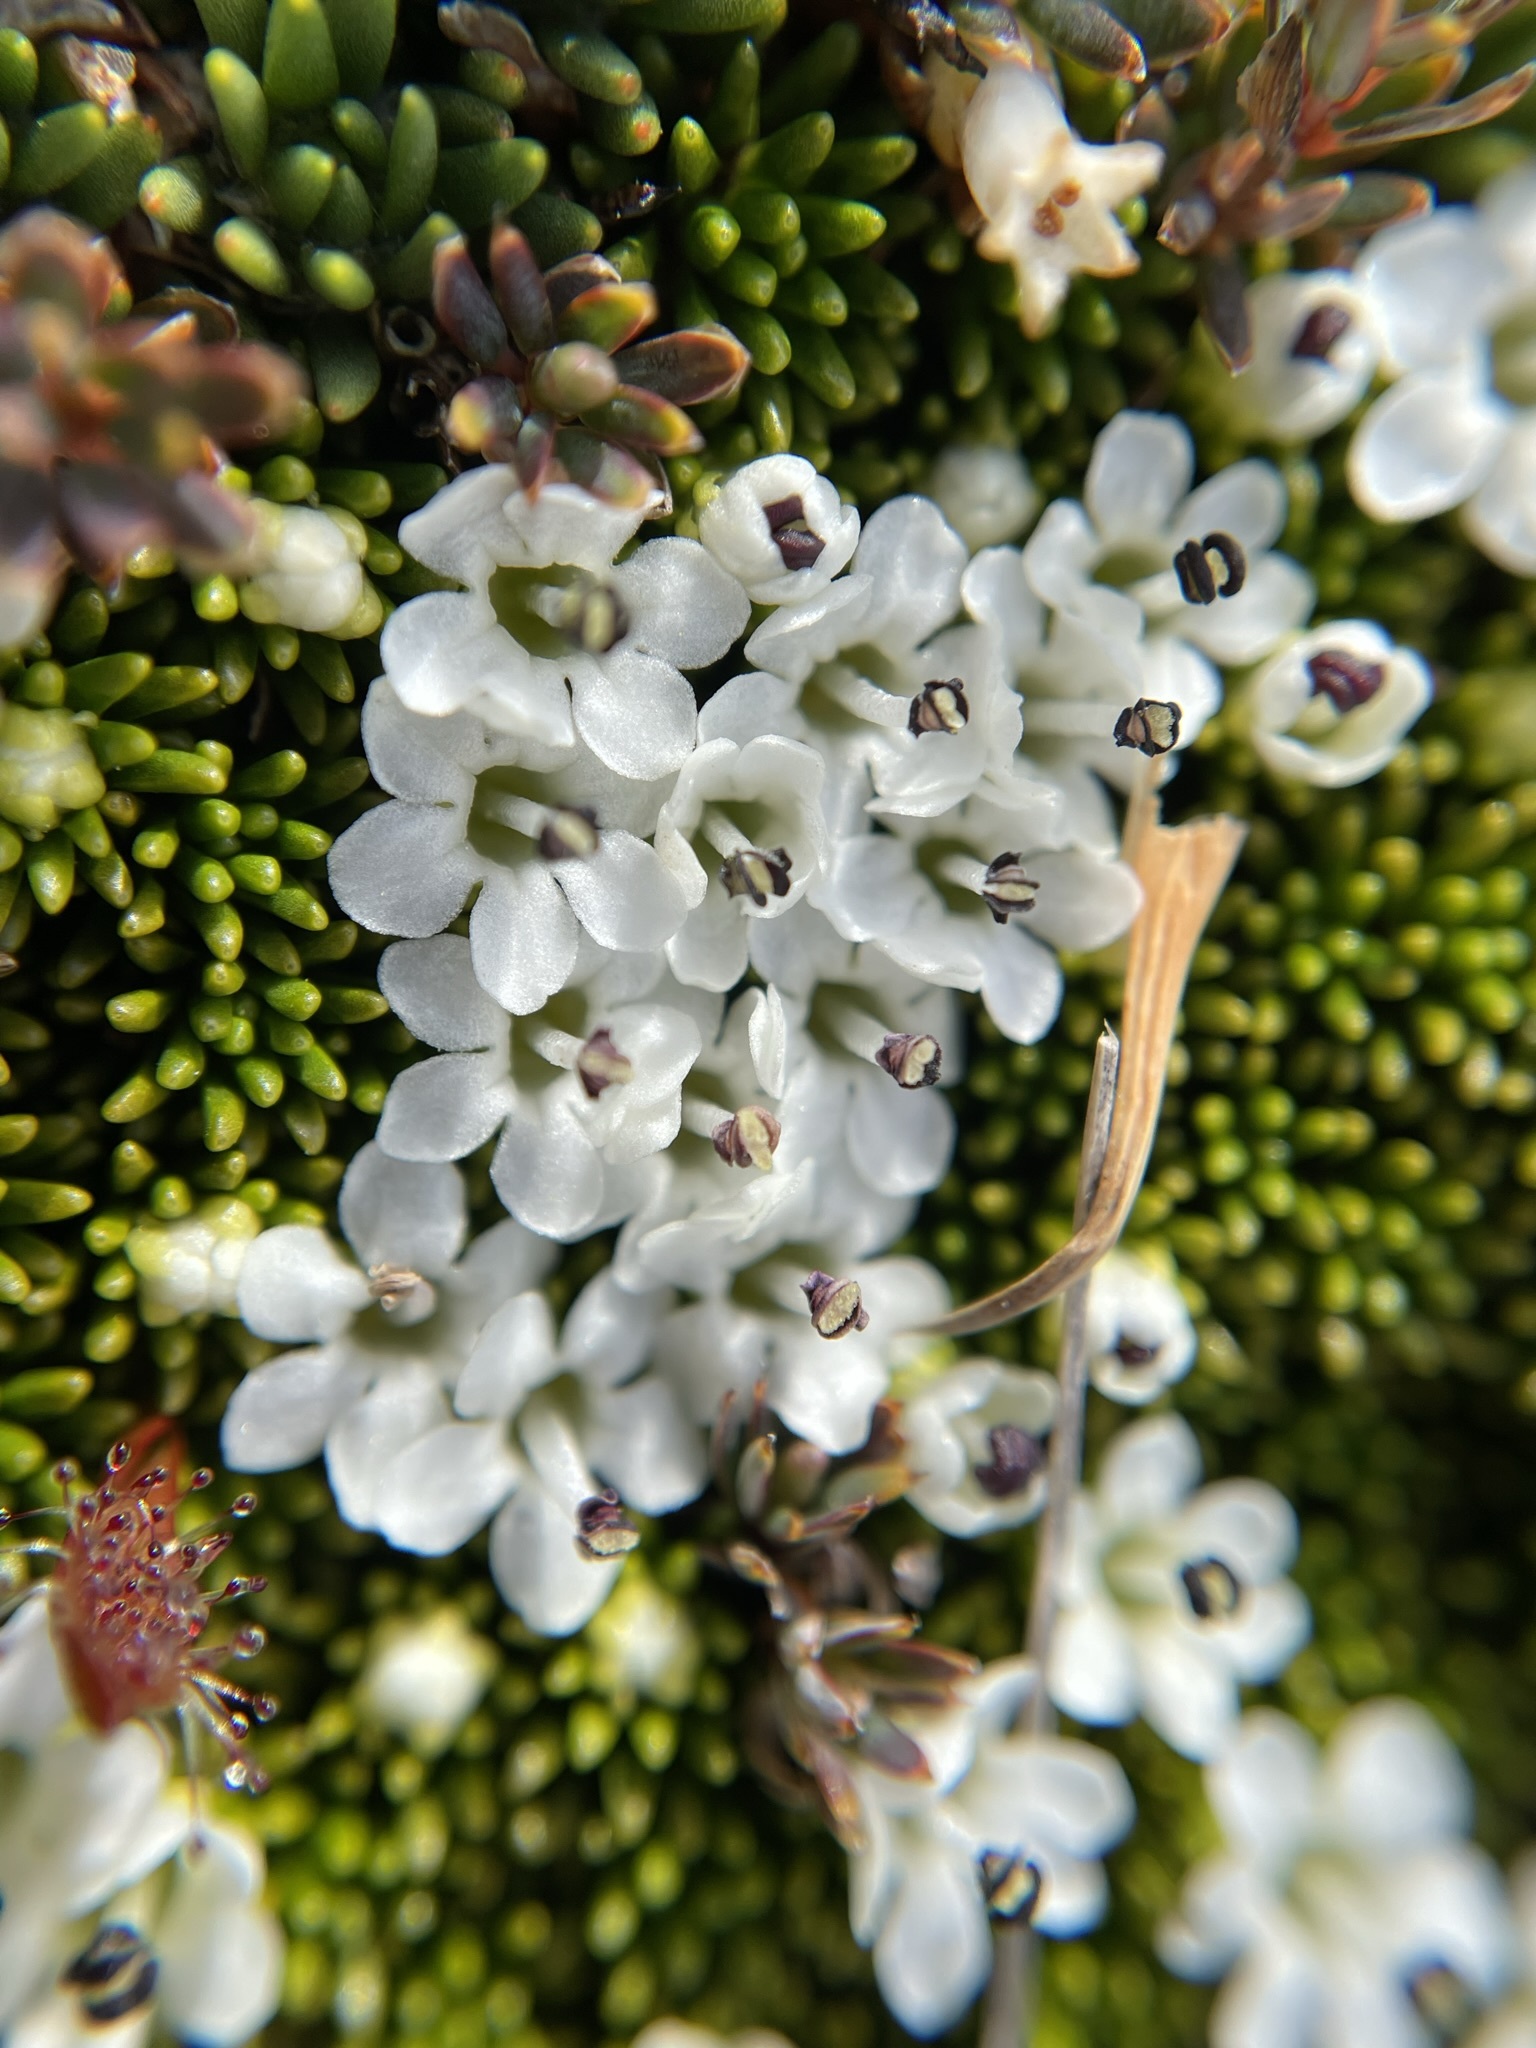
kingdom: Plantae
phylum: Tracheophyta
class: Magnoliopsida
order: Asterales
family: Stylidiaceae
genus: Phyllachne
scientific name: Phyllachne colensoi
